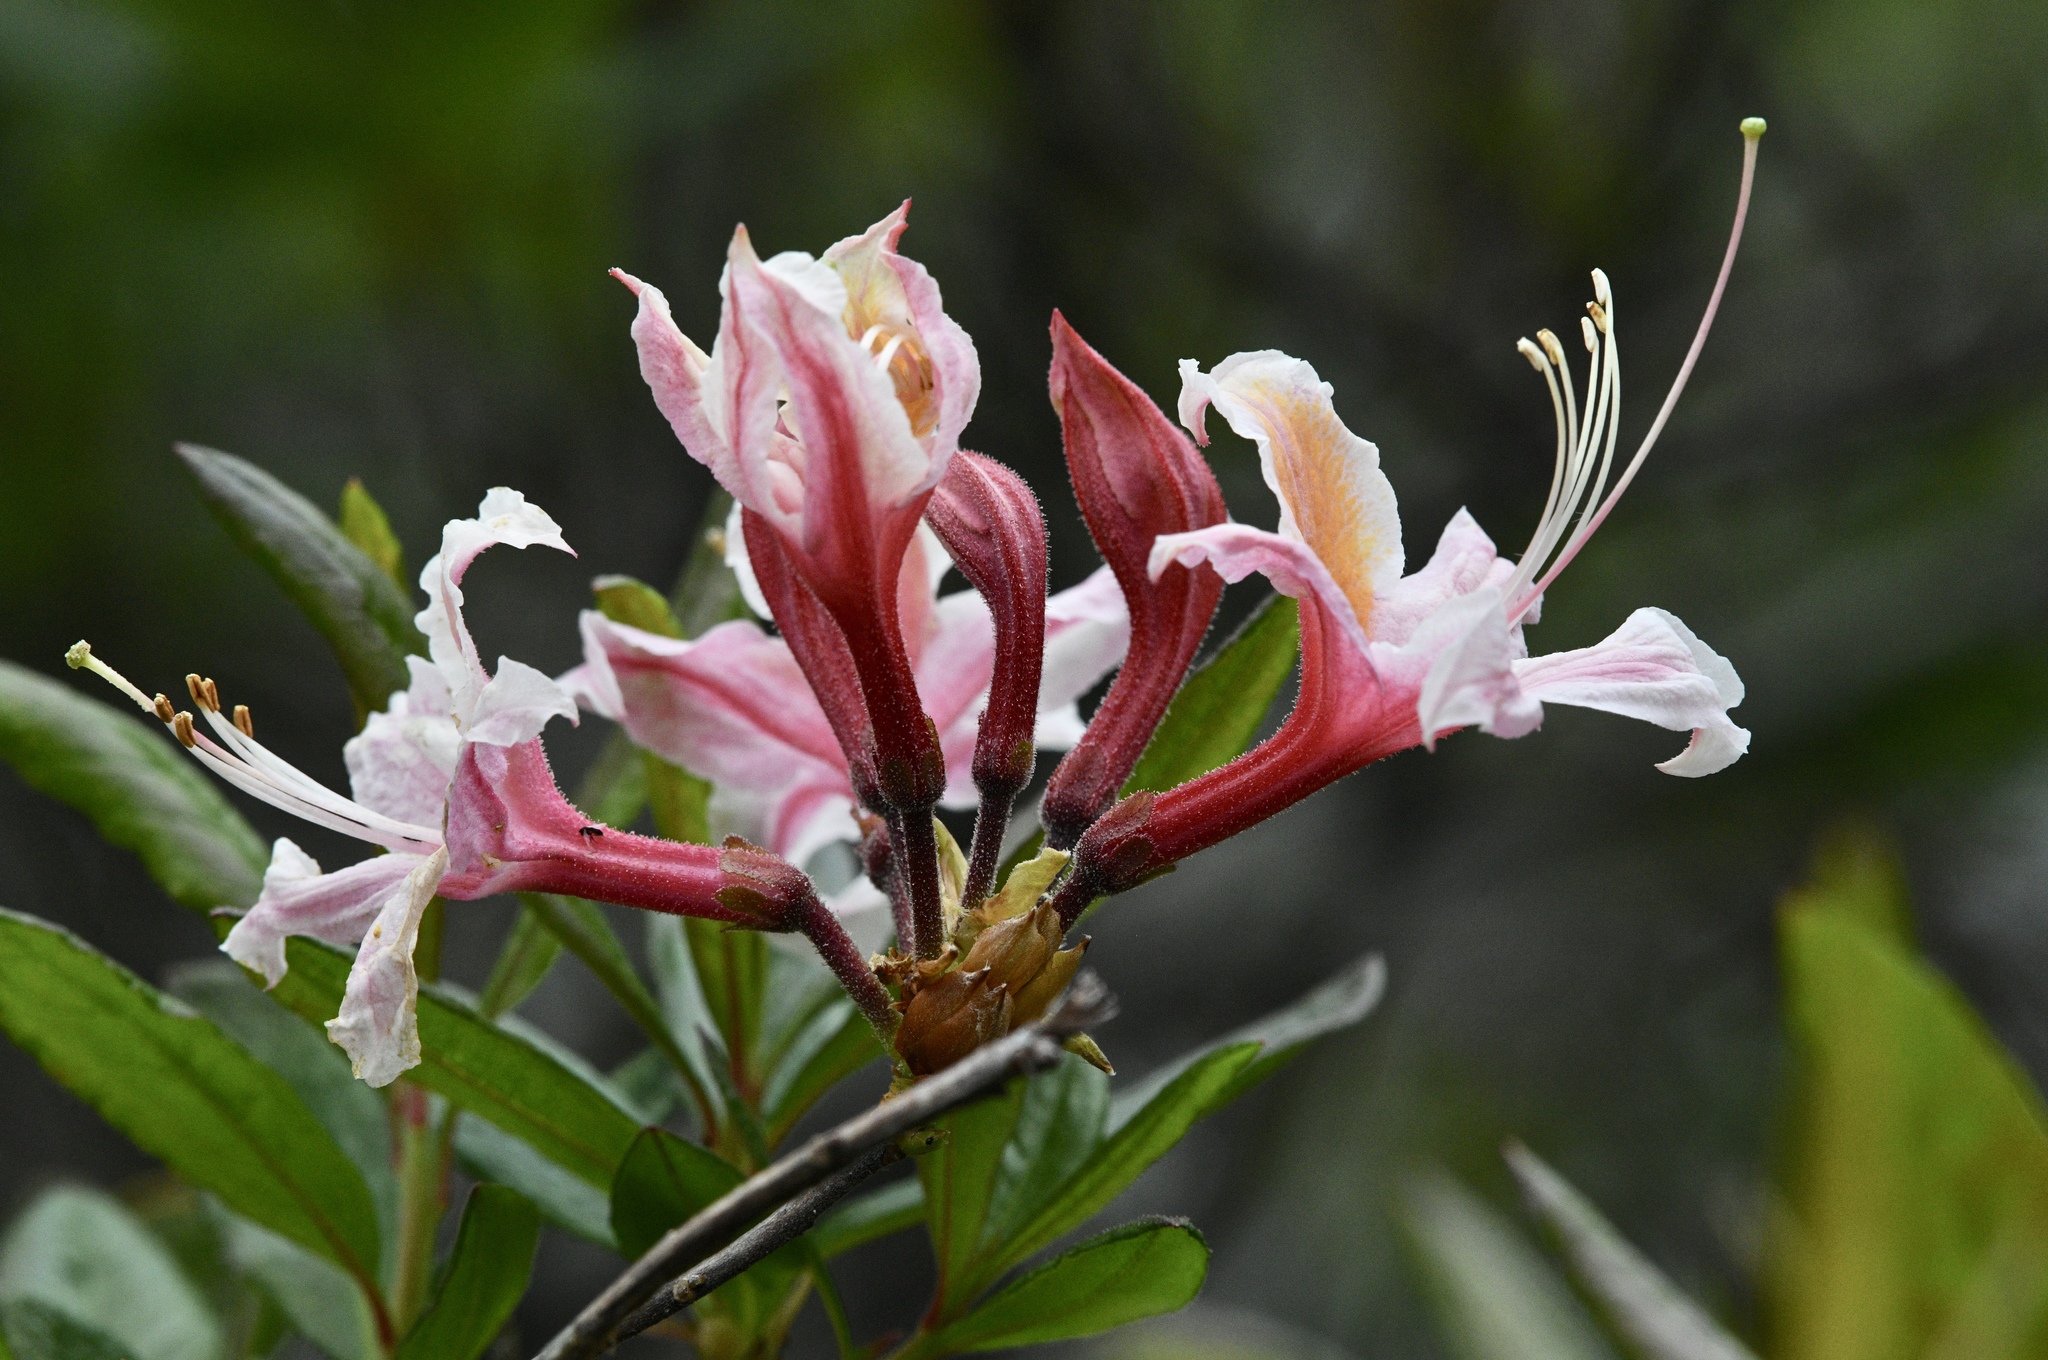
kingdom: Plantae
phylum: Tracheophyta
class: Magnoliopsida
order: Ericales
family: Ericaceae
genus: Rhododendron
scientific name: Rhododendron occidentale
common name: Western azalea
